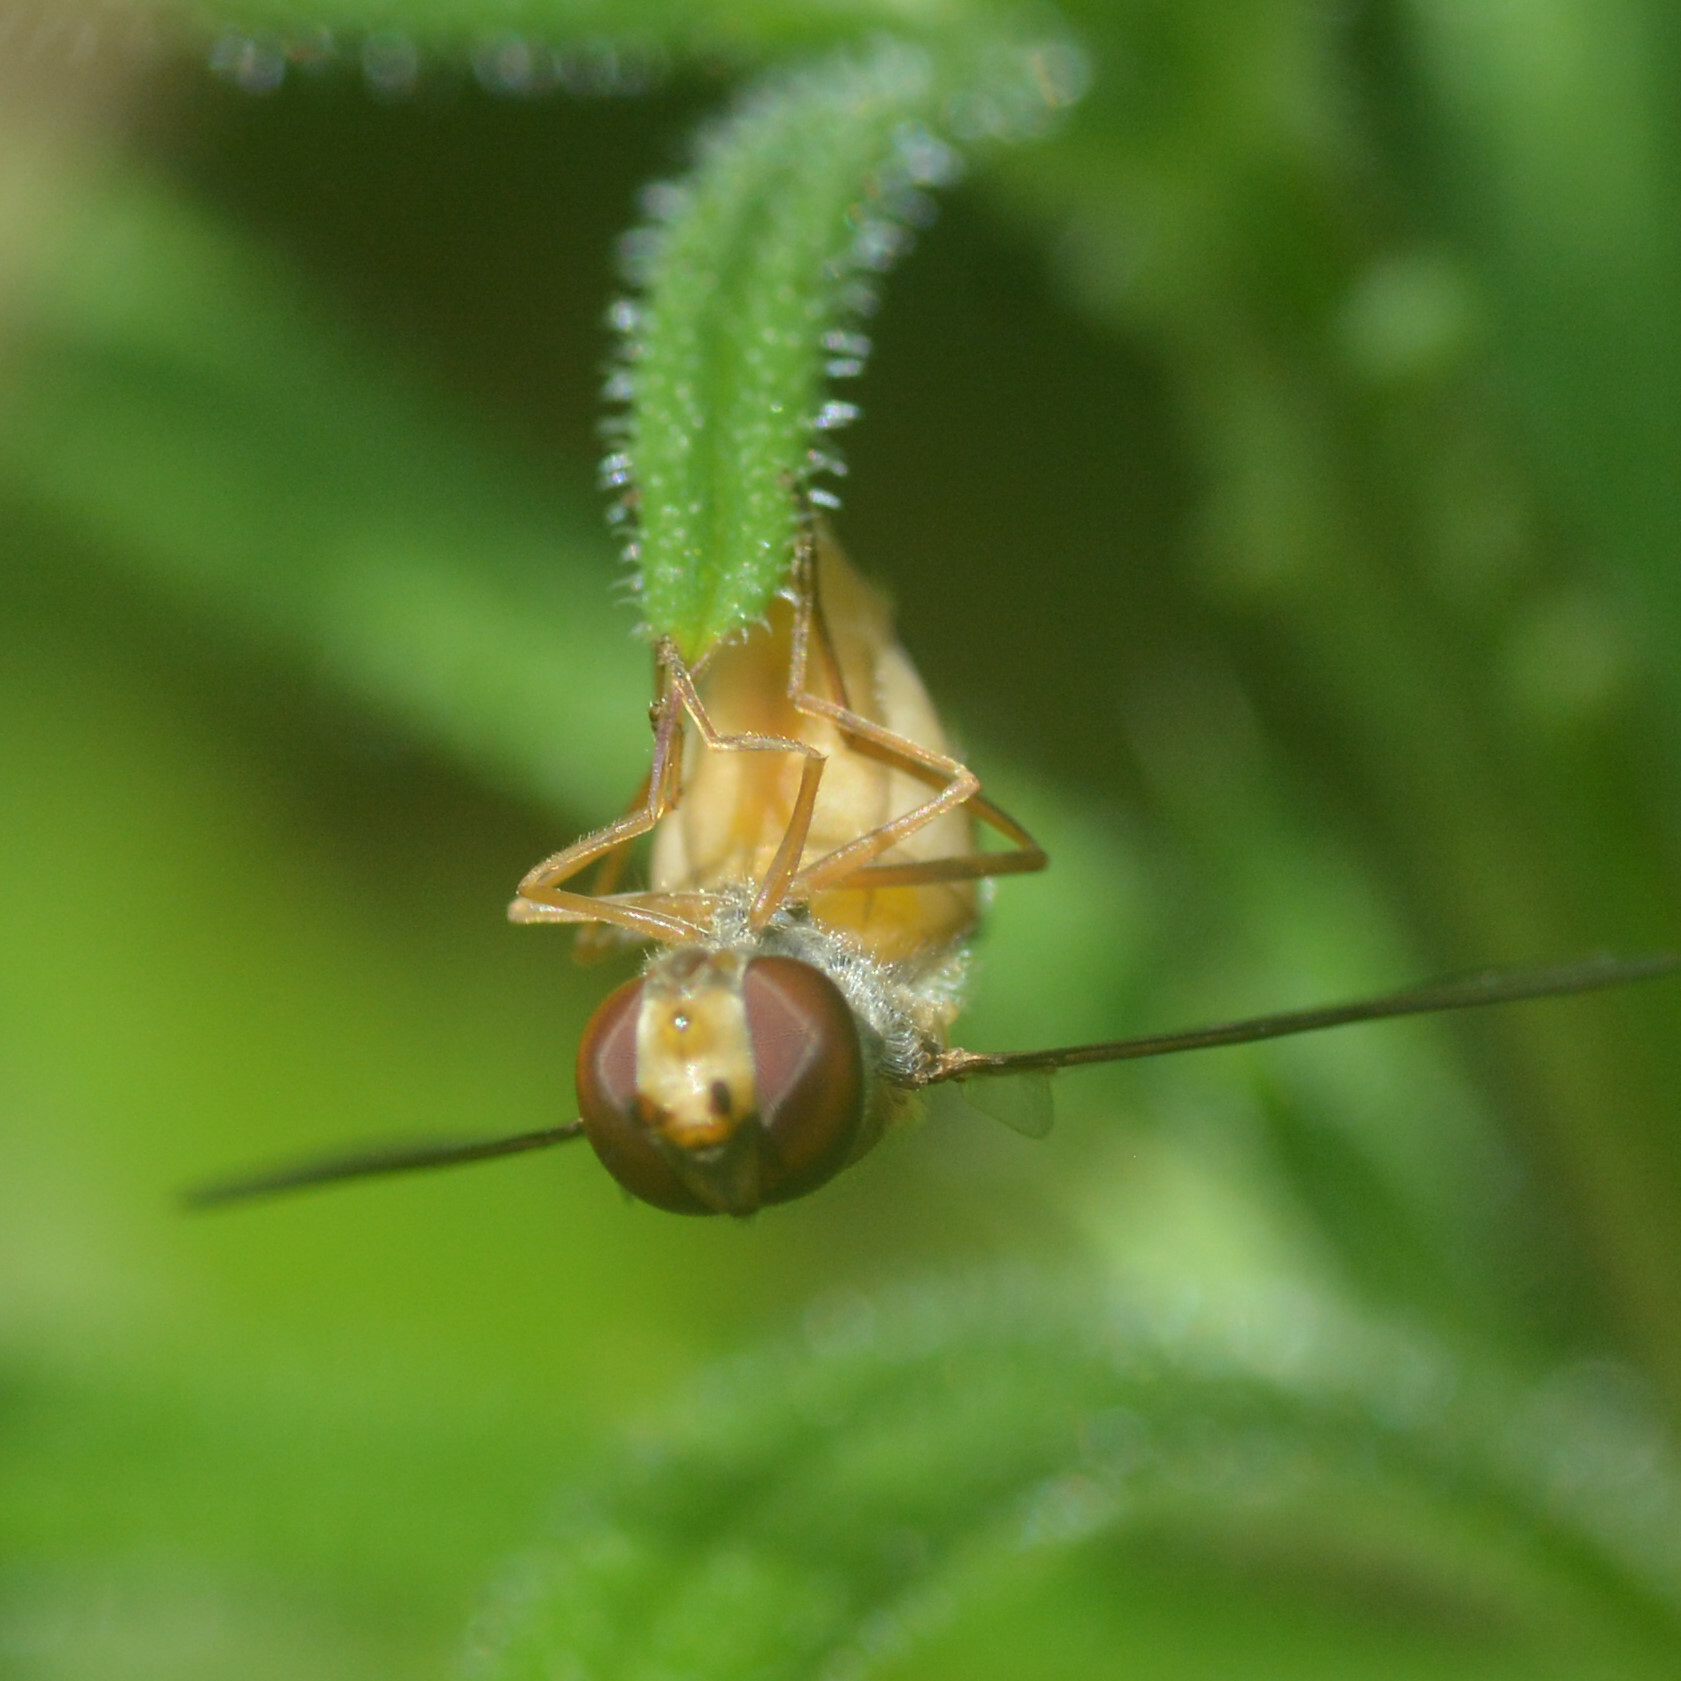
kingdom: Animalia
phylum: Arthropoda
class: Insecta
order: Diptera
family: Syrphidae
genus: Episyrphus
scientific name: Episyrphus balteatus
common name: Marmalade hoverfly
